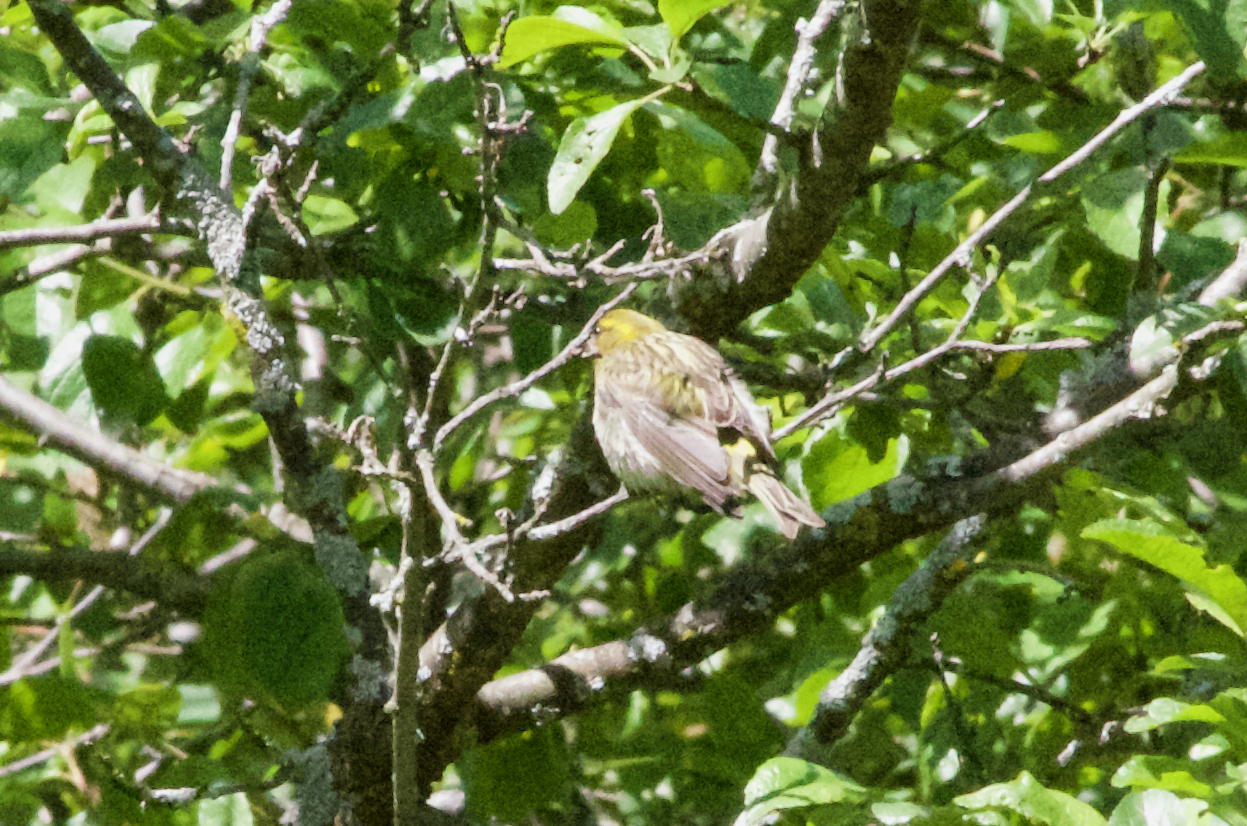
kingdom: Animalia
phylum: Chordata
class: Aves
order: Passeriformes
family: Fringillidae
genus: Serinus
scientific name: Serinus serinus
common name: European serin
